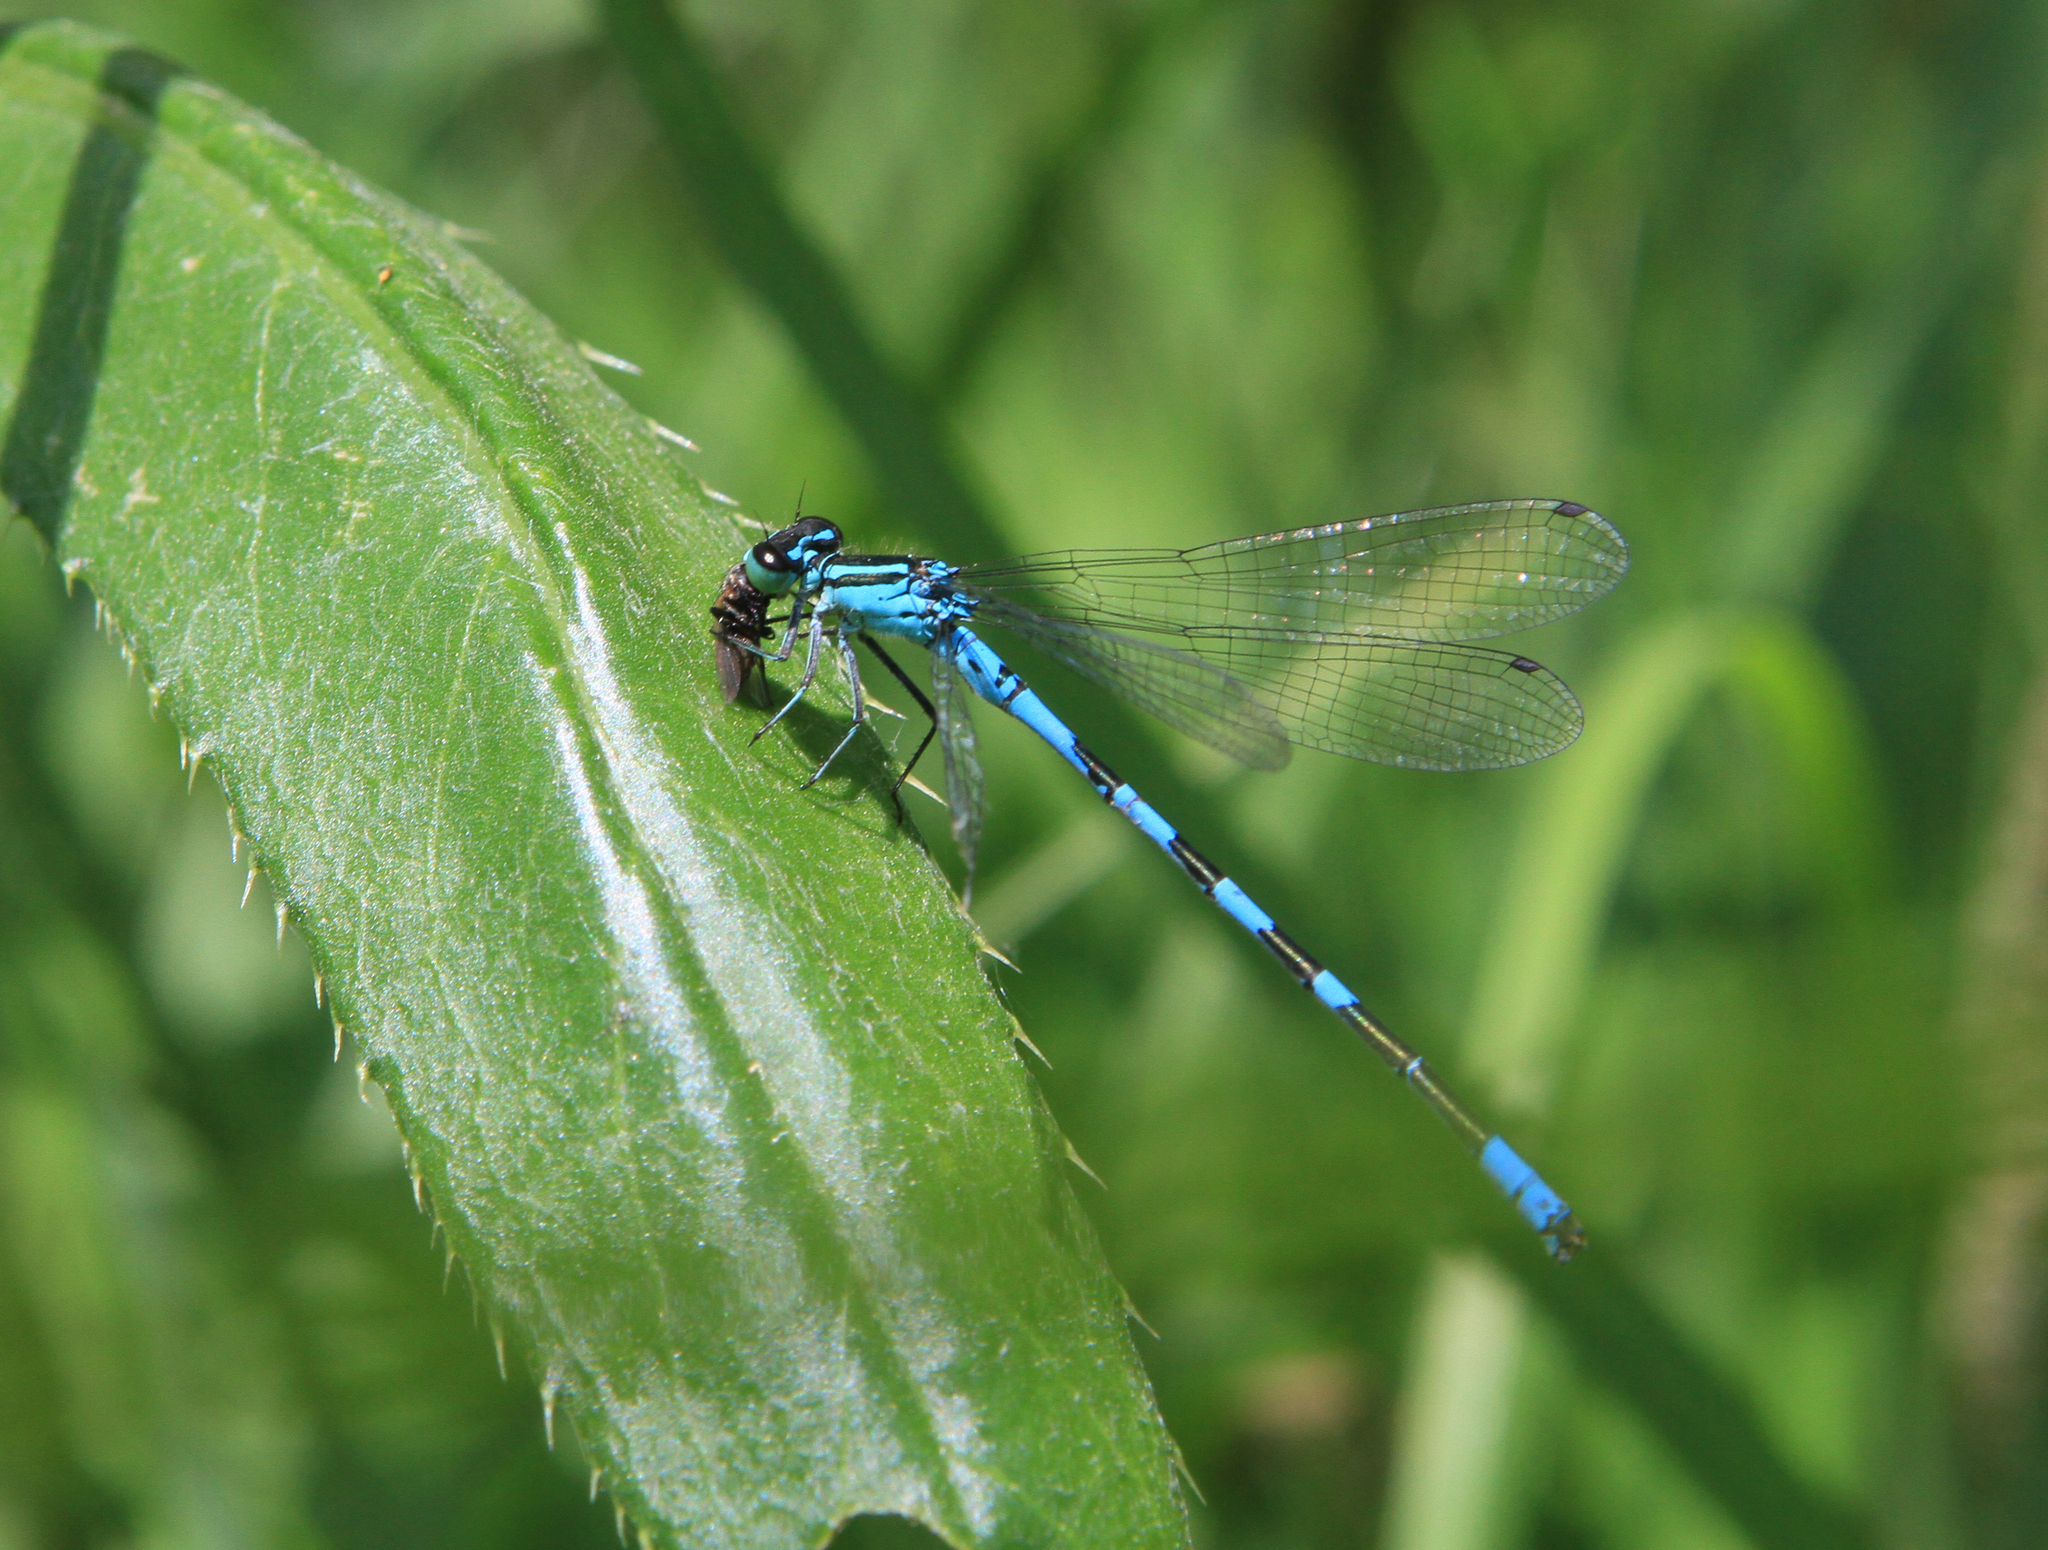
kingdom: Animalia
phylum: Arthropoda
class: Insecta
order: Odonata
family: Coenagrionidae
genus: Coenagrion
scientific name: Coenagrion hastulatum
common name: Spearhead bluet
